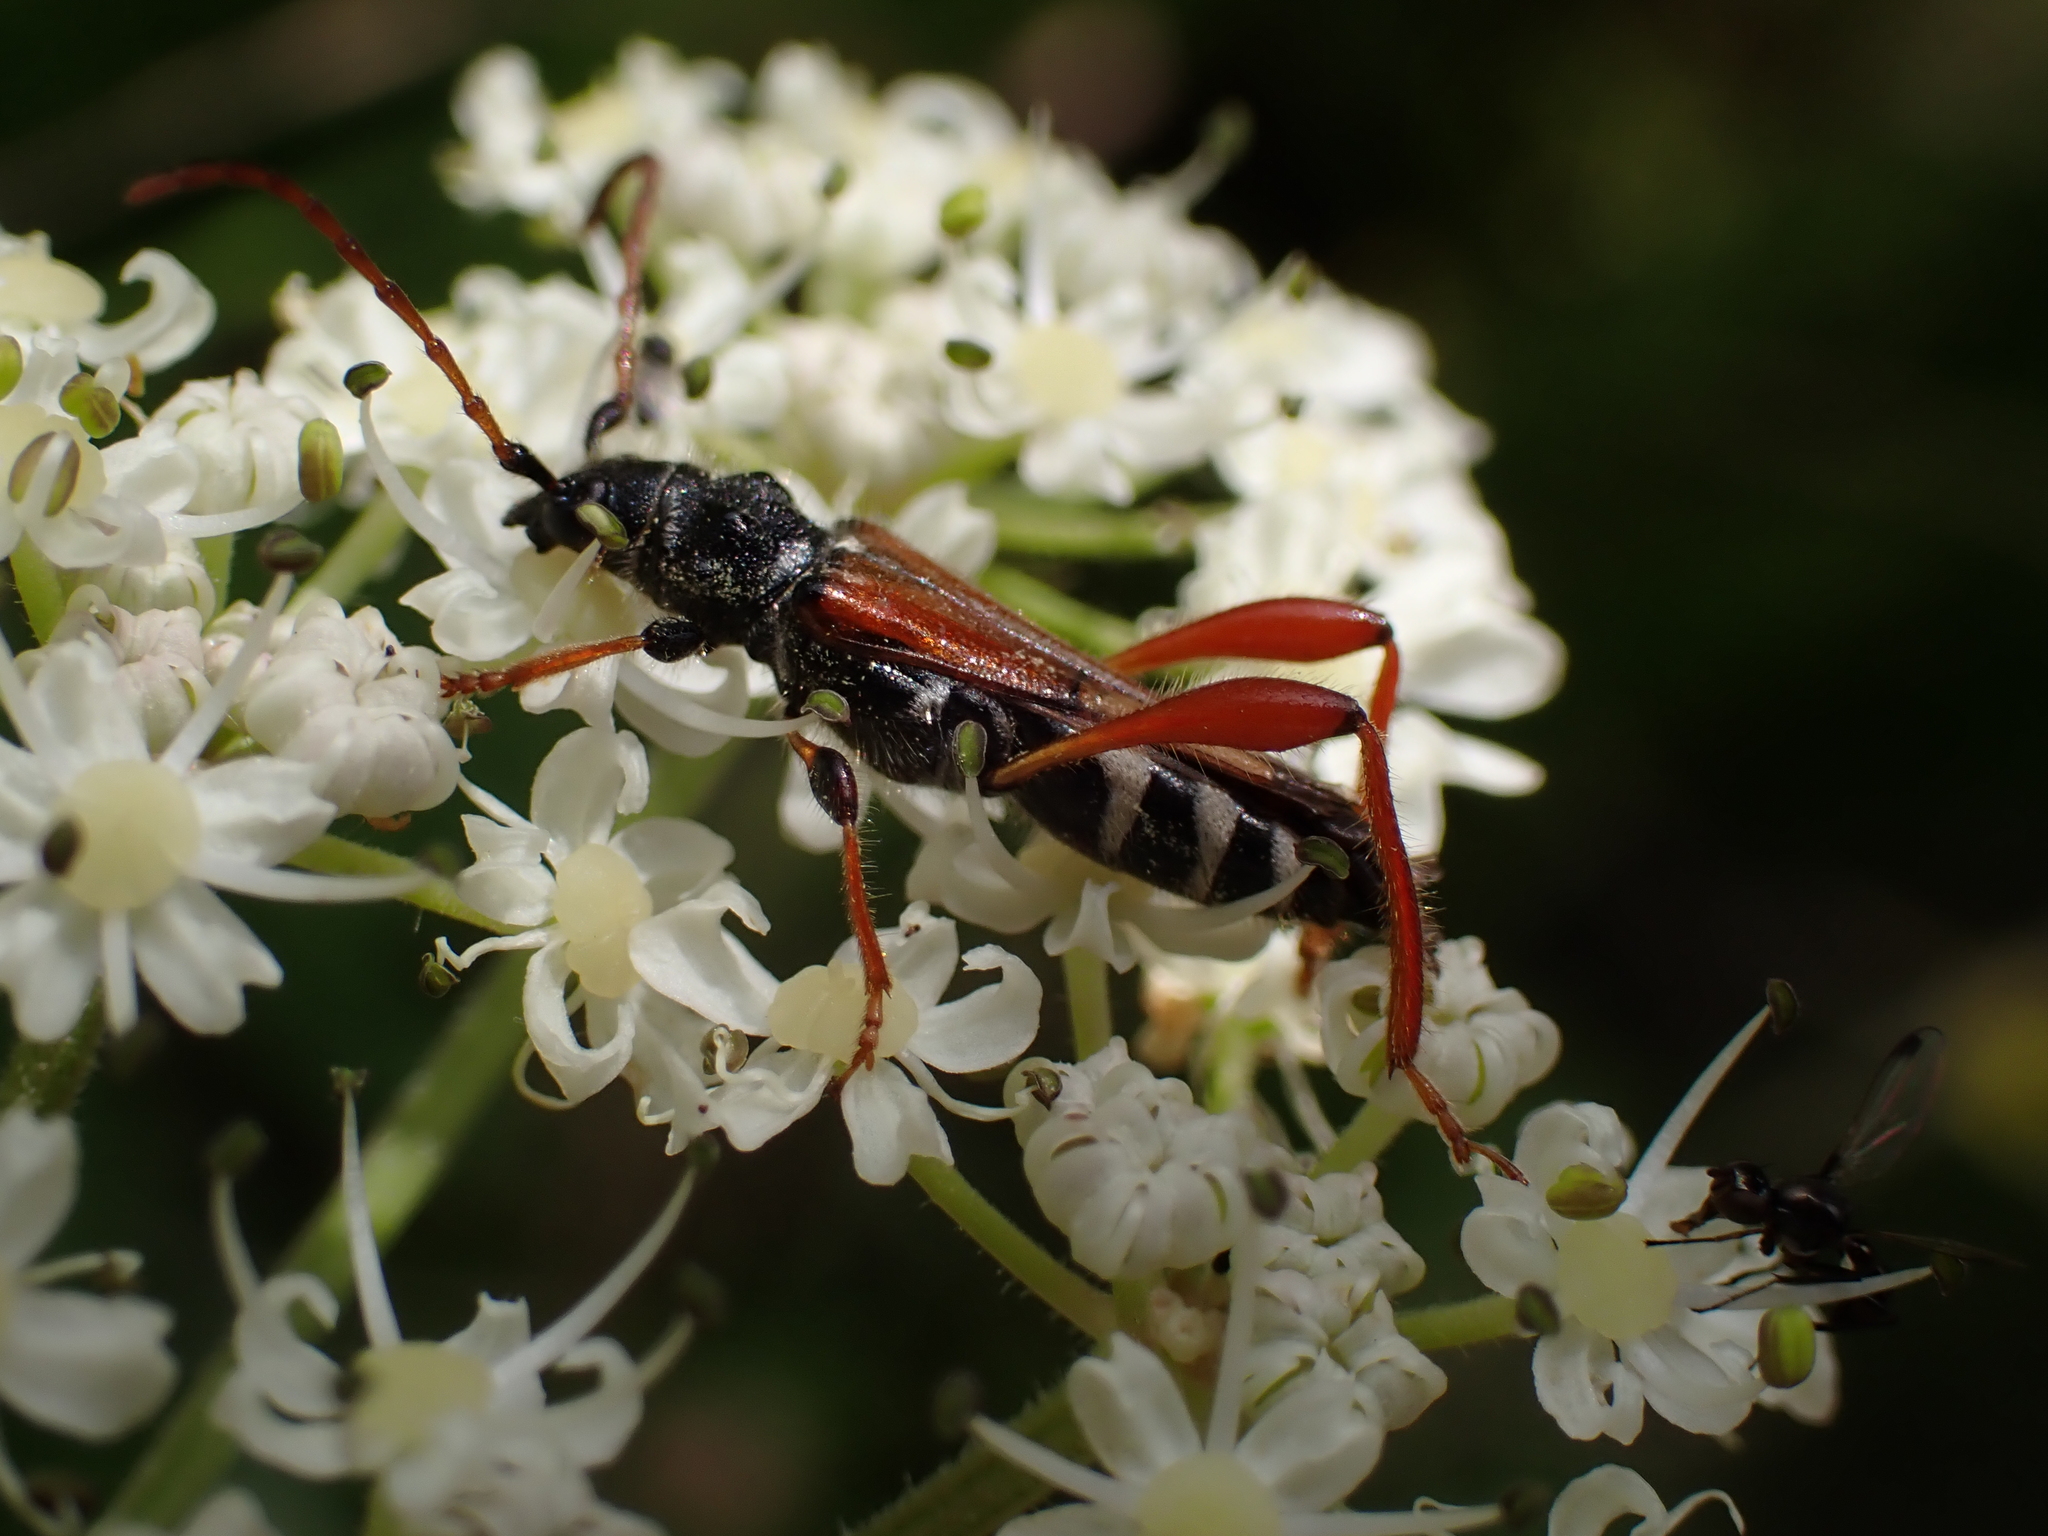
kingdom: Animalia
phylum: Arthropoda
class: Insecta
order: Coleoptera
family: Cerambycidae
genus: Stenopterus
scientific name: Stenopterus rufus
